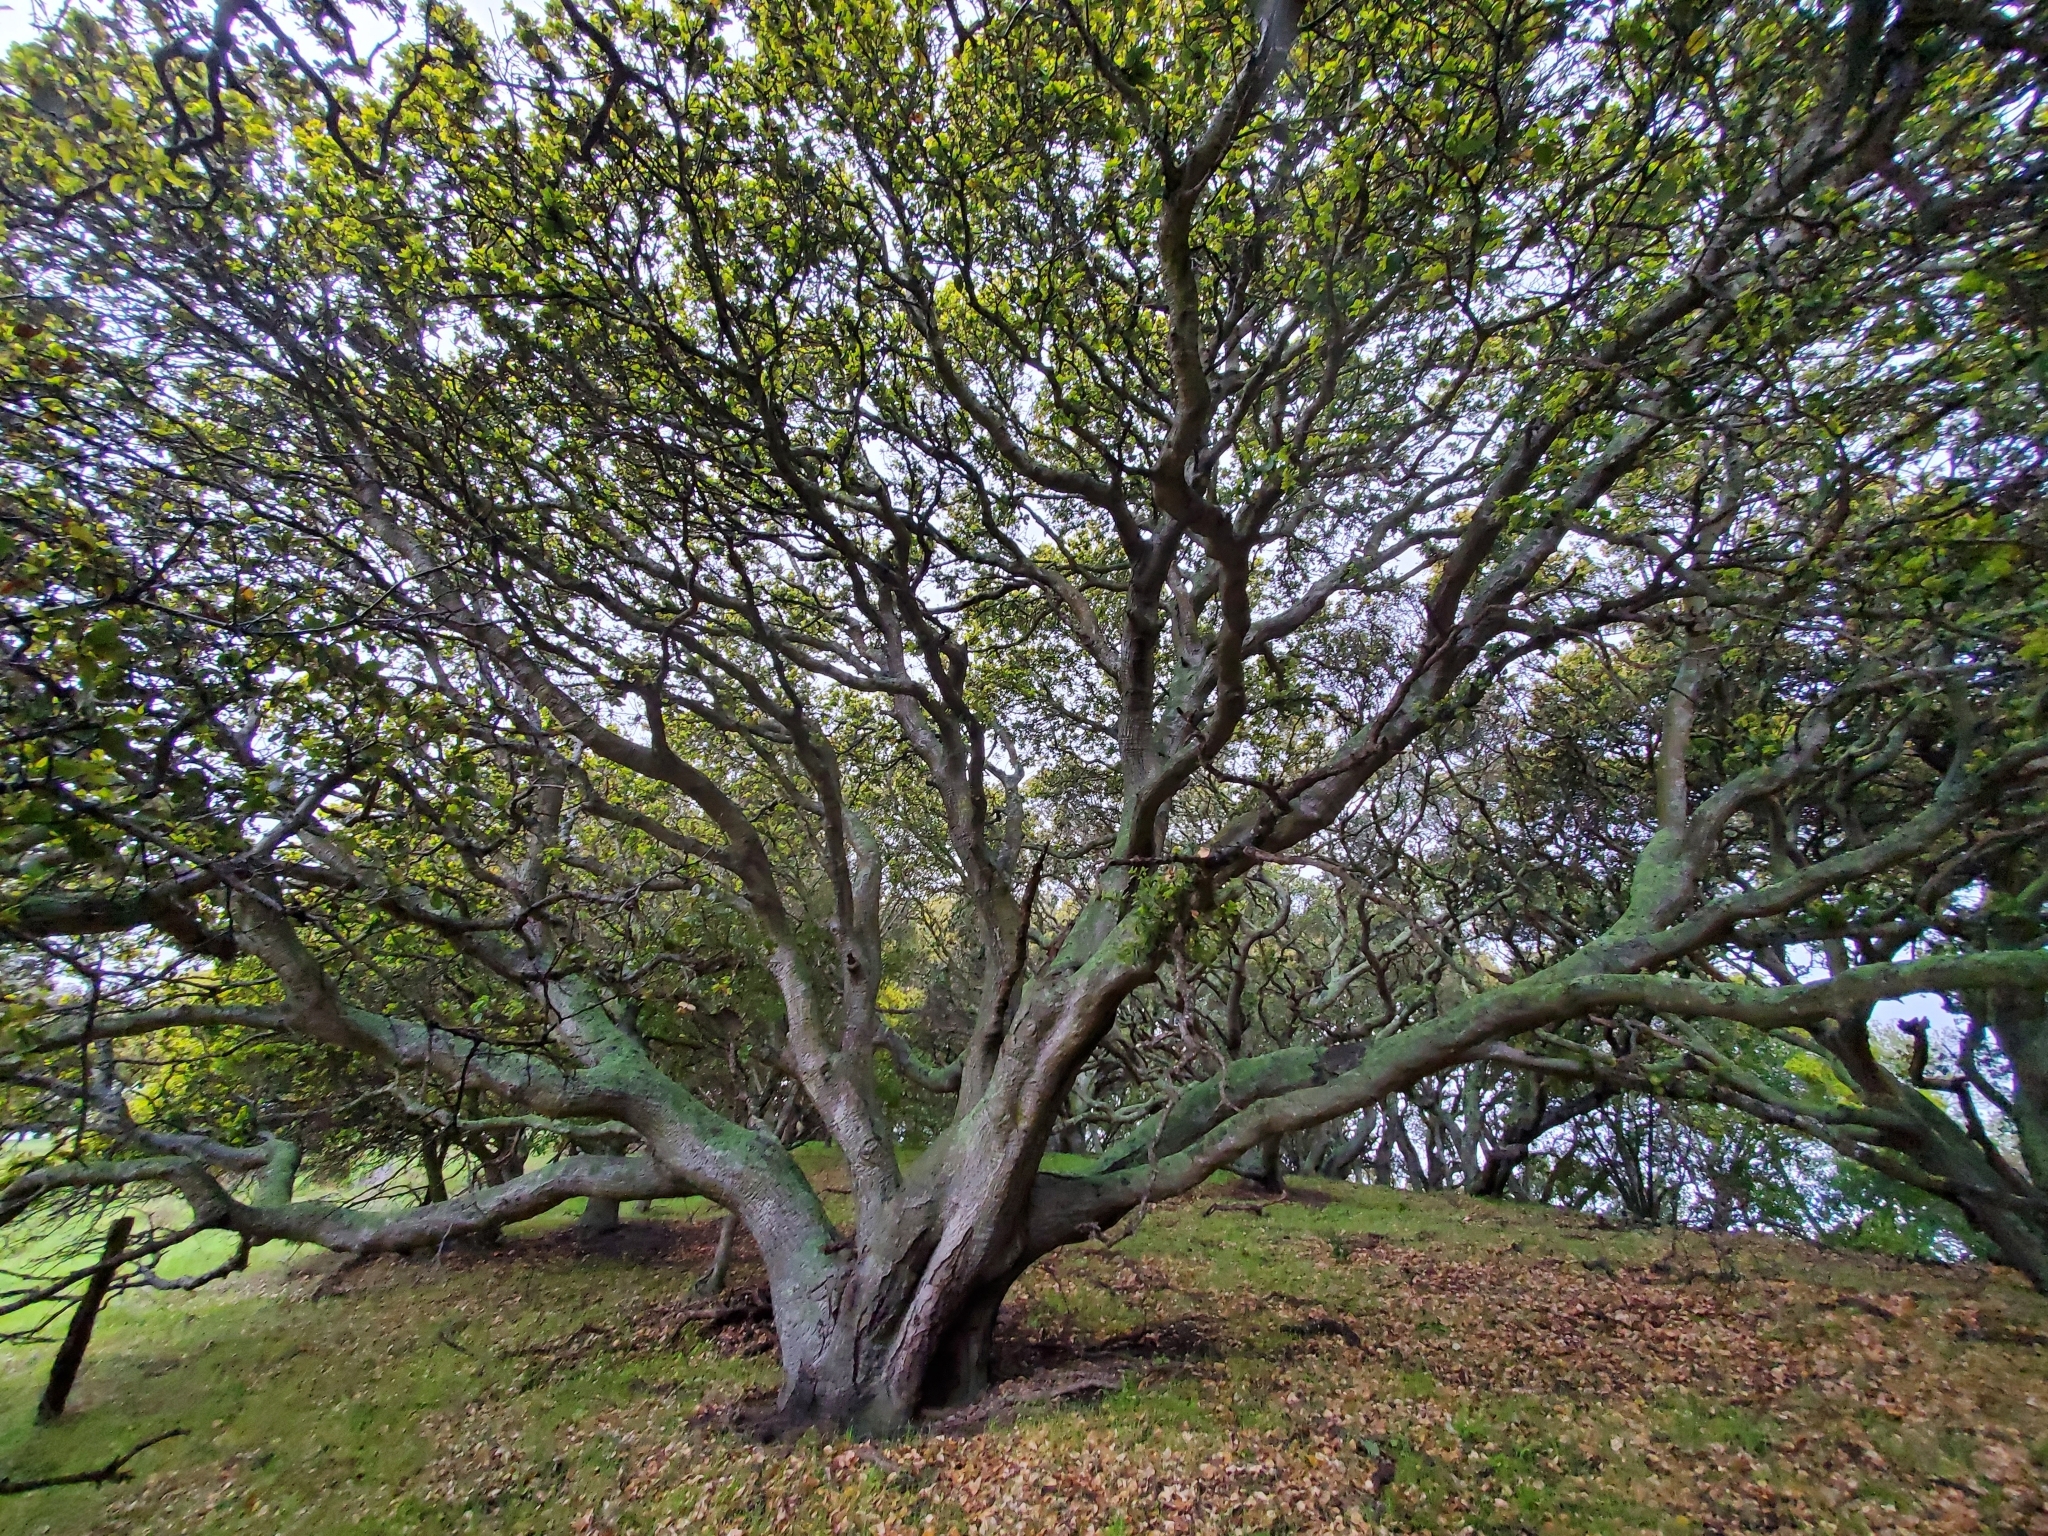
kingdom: Plantae
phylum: Tracheophyta
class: Magnoliopsida
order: Fagales
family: Fagaceae
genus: Quercus
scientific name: Quercus agrifolia
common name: California live oak
